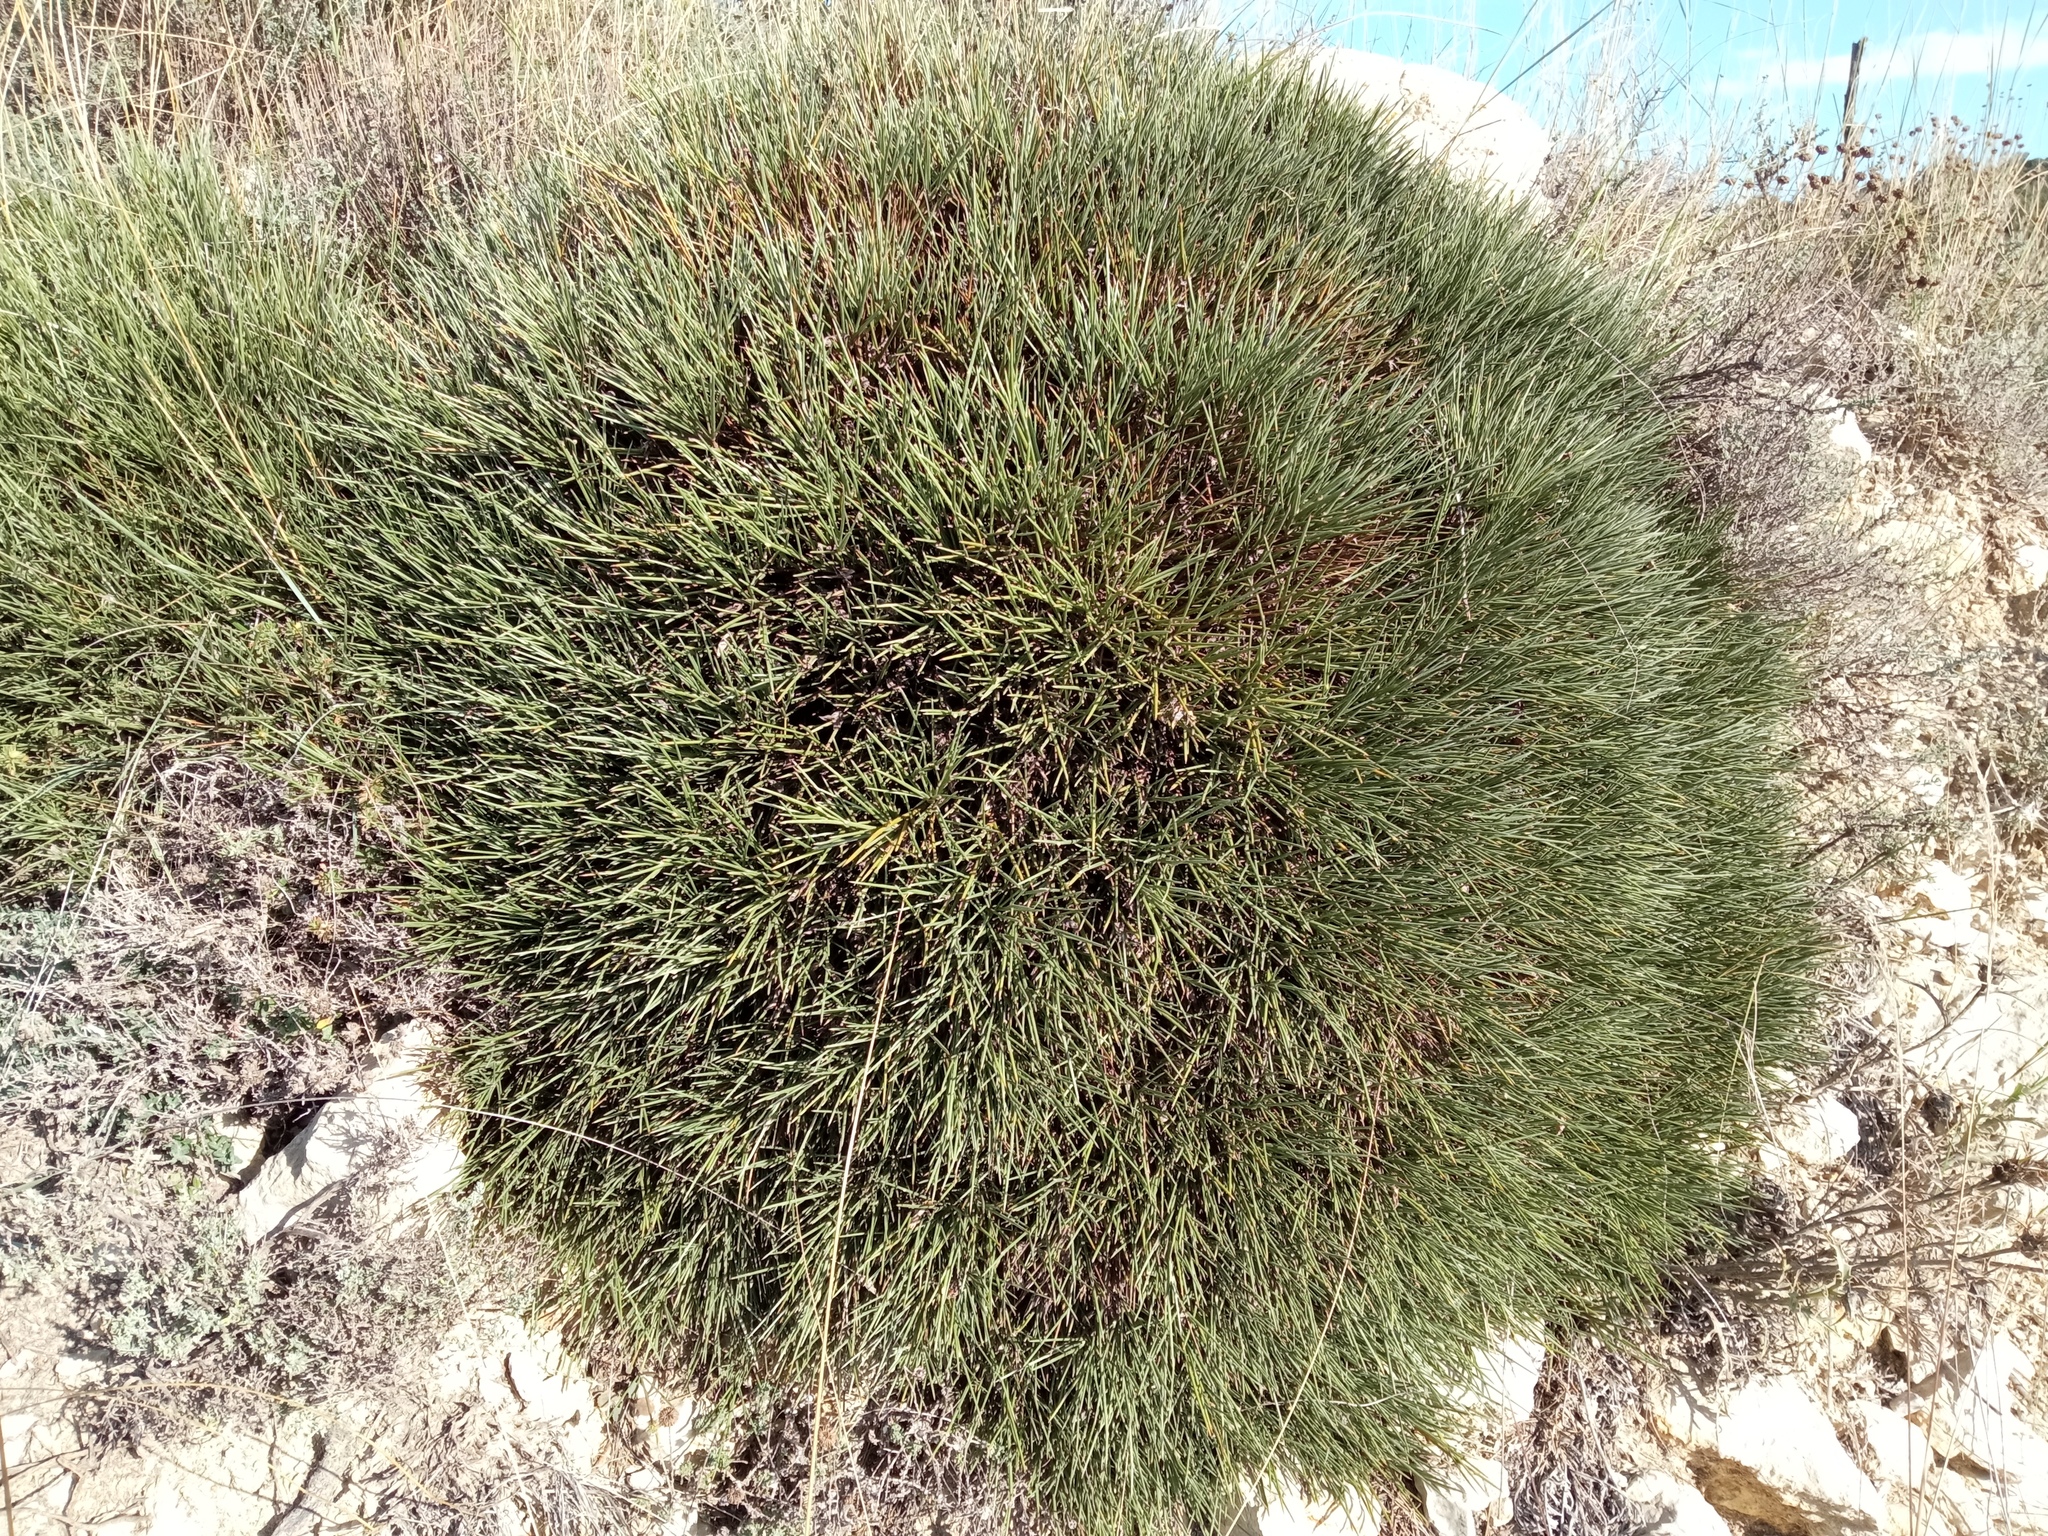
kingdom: Plantae
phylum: Tracheophyta
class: Magnoliopsida
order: Fabales
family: Fabaceae
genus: Erinacea
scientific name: Erinacea anthyllis
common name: Hedgehog-broom
